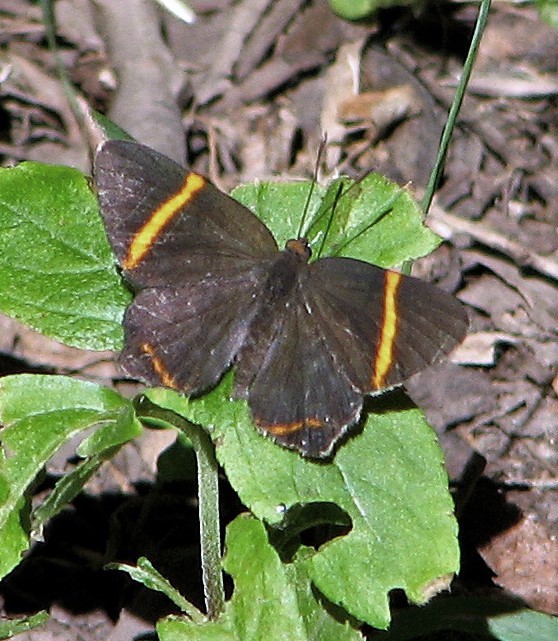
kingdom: Animalia
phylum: Arthropoda
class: Insecta
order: Lepidoptera
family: Riodinidae
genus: Riodina
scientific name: Riodina lysippoides
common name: Little dancer metalmark
